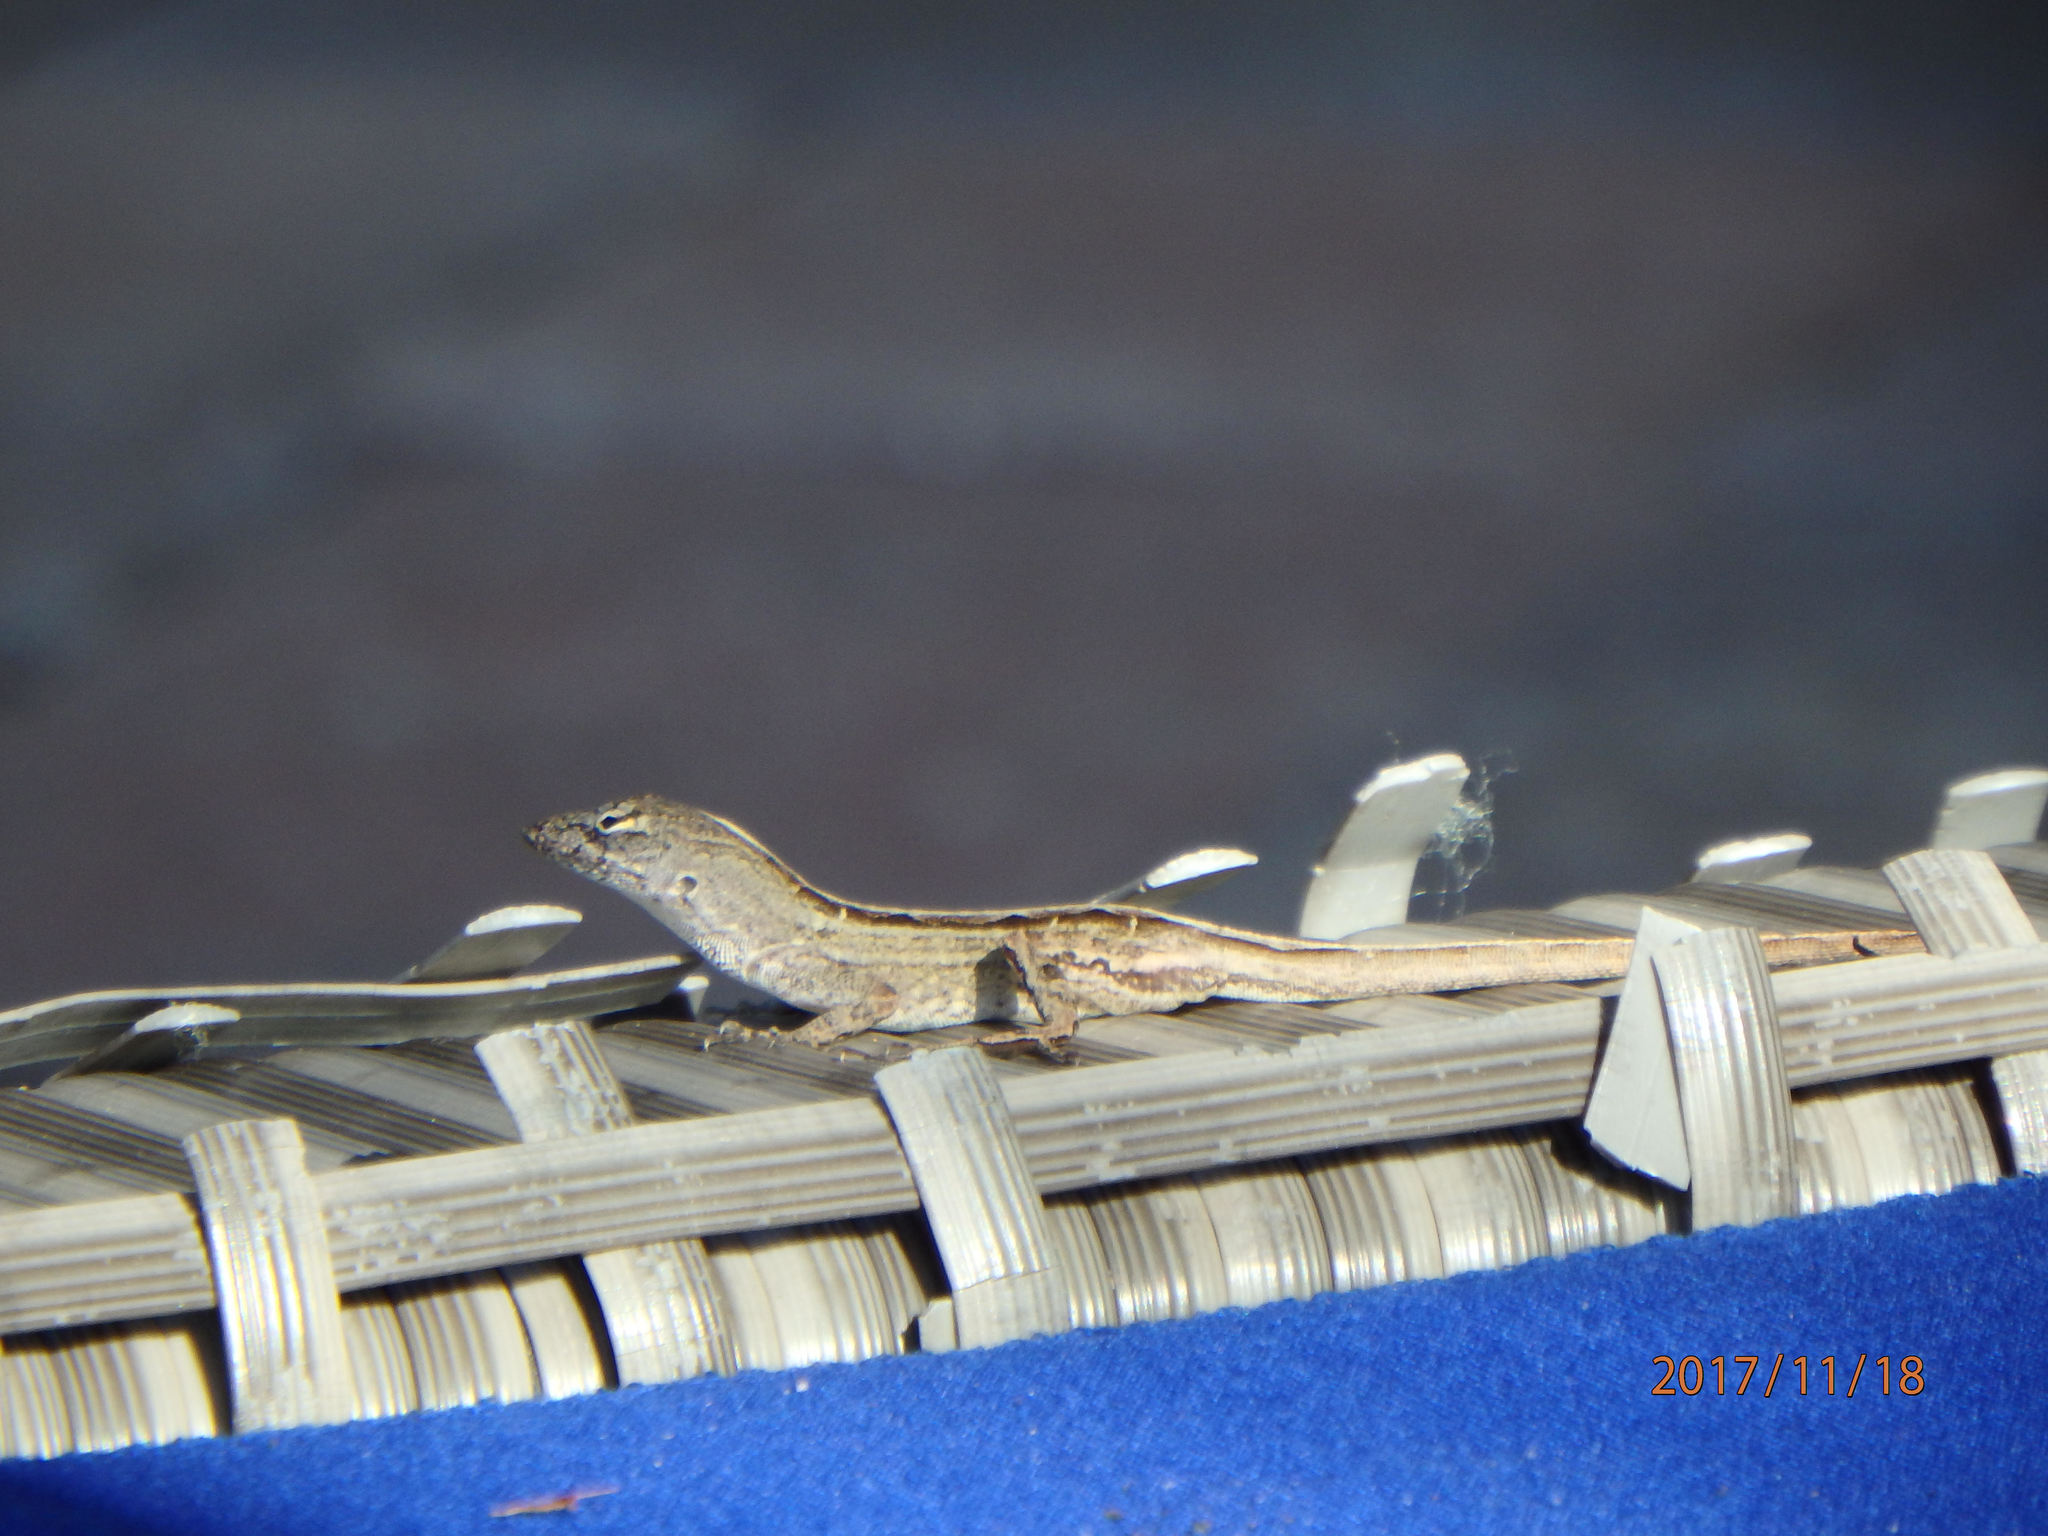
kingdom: Animalia
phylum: Chordata
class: Squamata
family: Dactyloidae
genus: Anolis
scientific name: Anolis sagrei
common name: Brown anole
